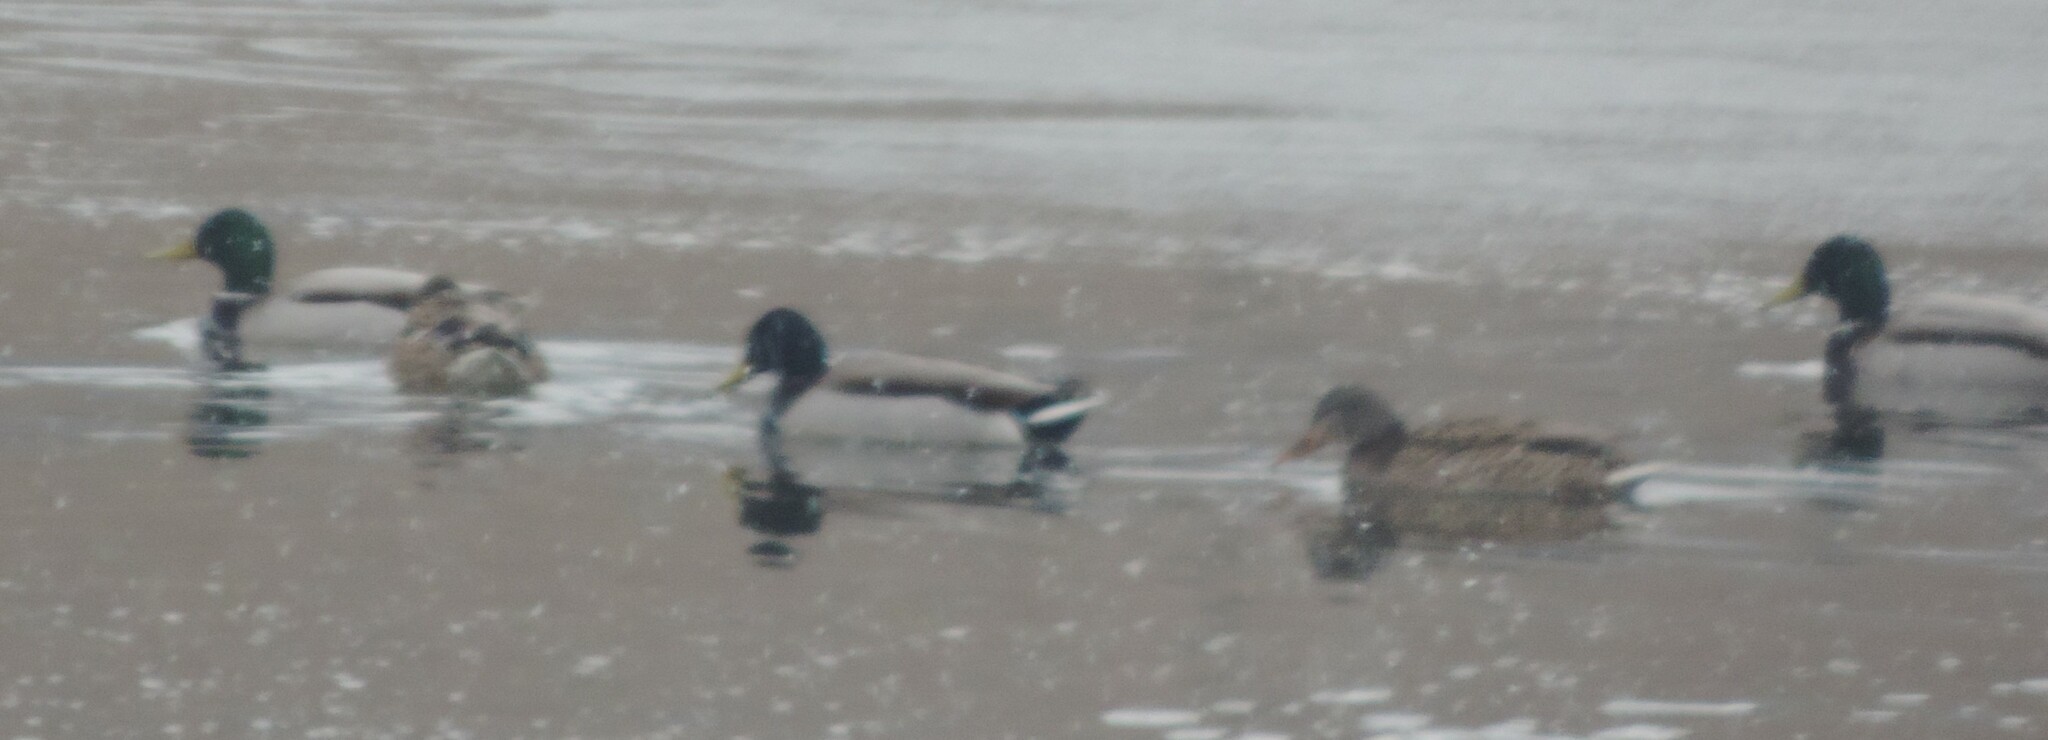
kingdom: Animalia
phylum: Chordata
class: Aves
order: Anseriformes
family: Anatidae
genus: Anas
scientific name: Anas platyrhynchos
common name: Mallard
